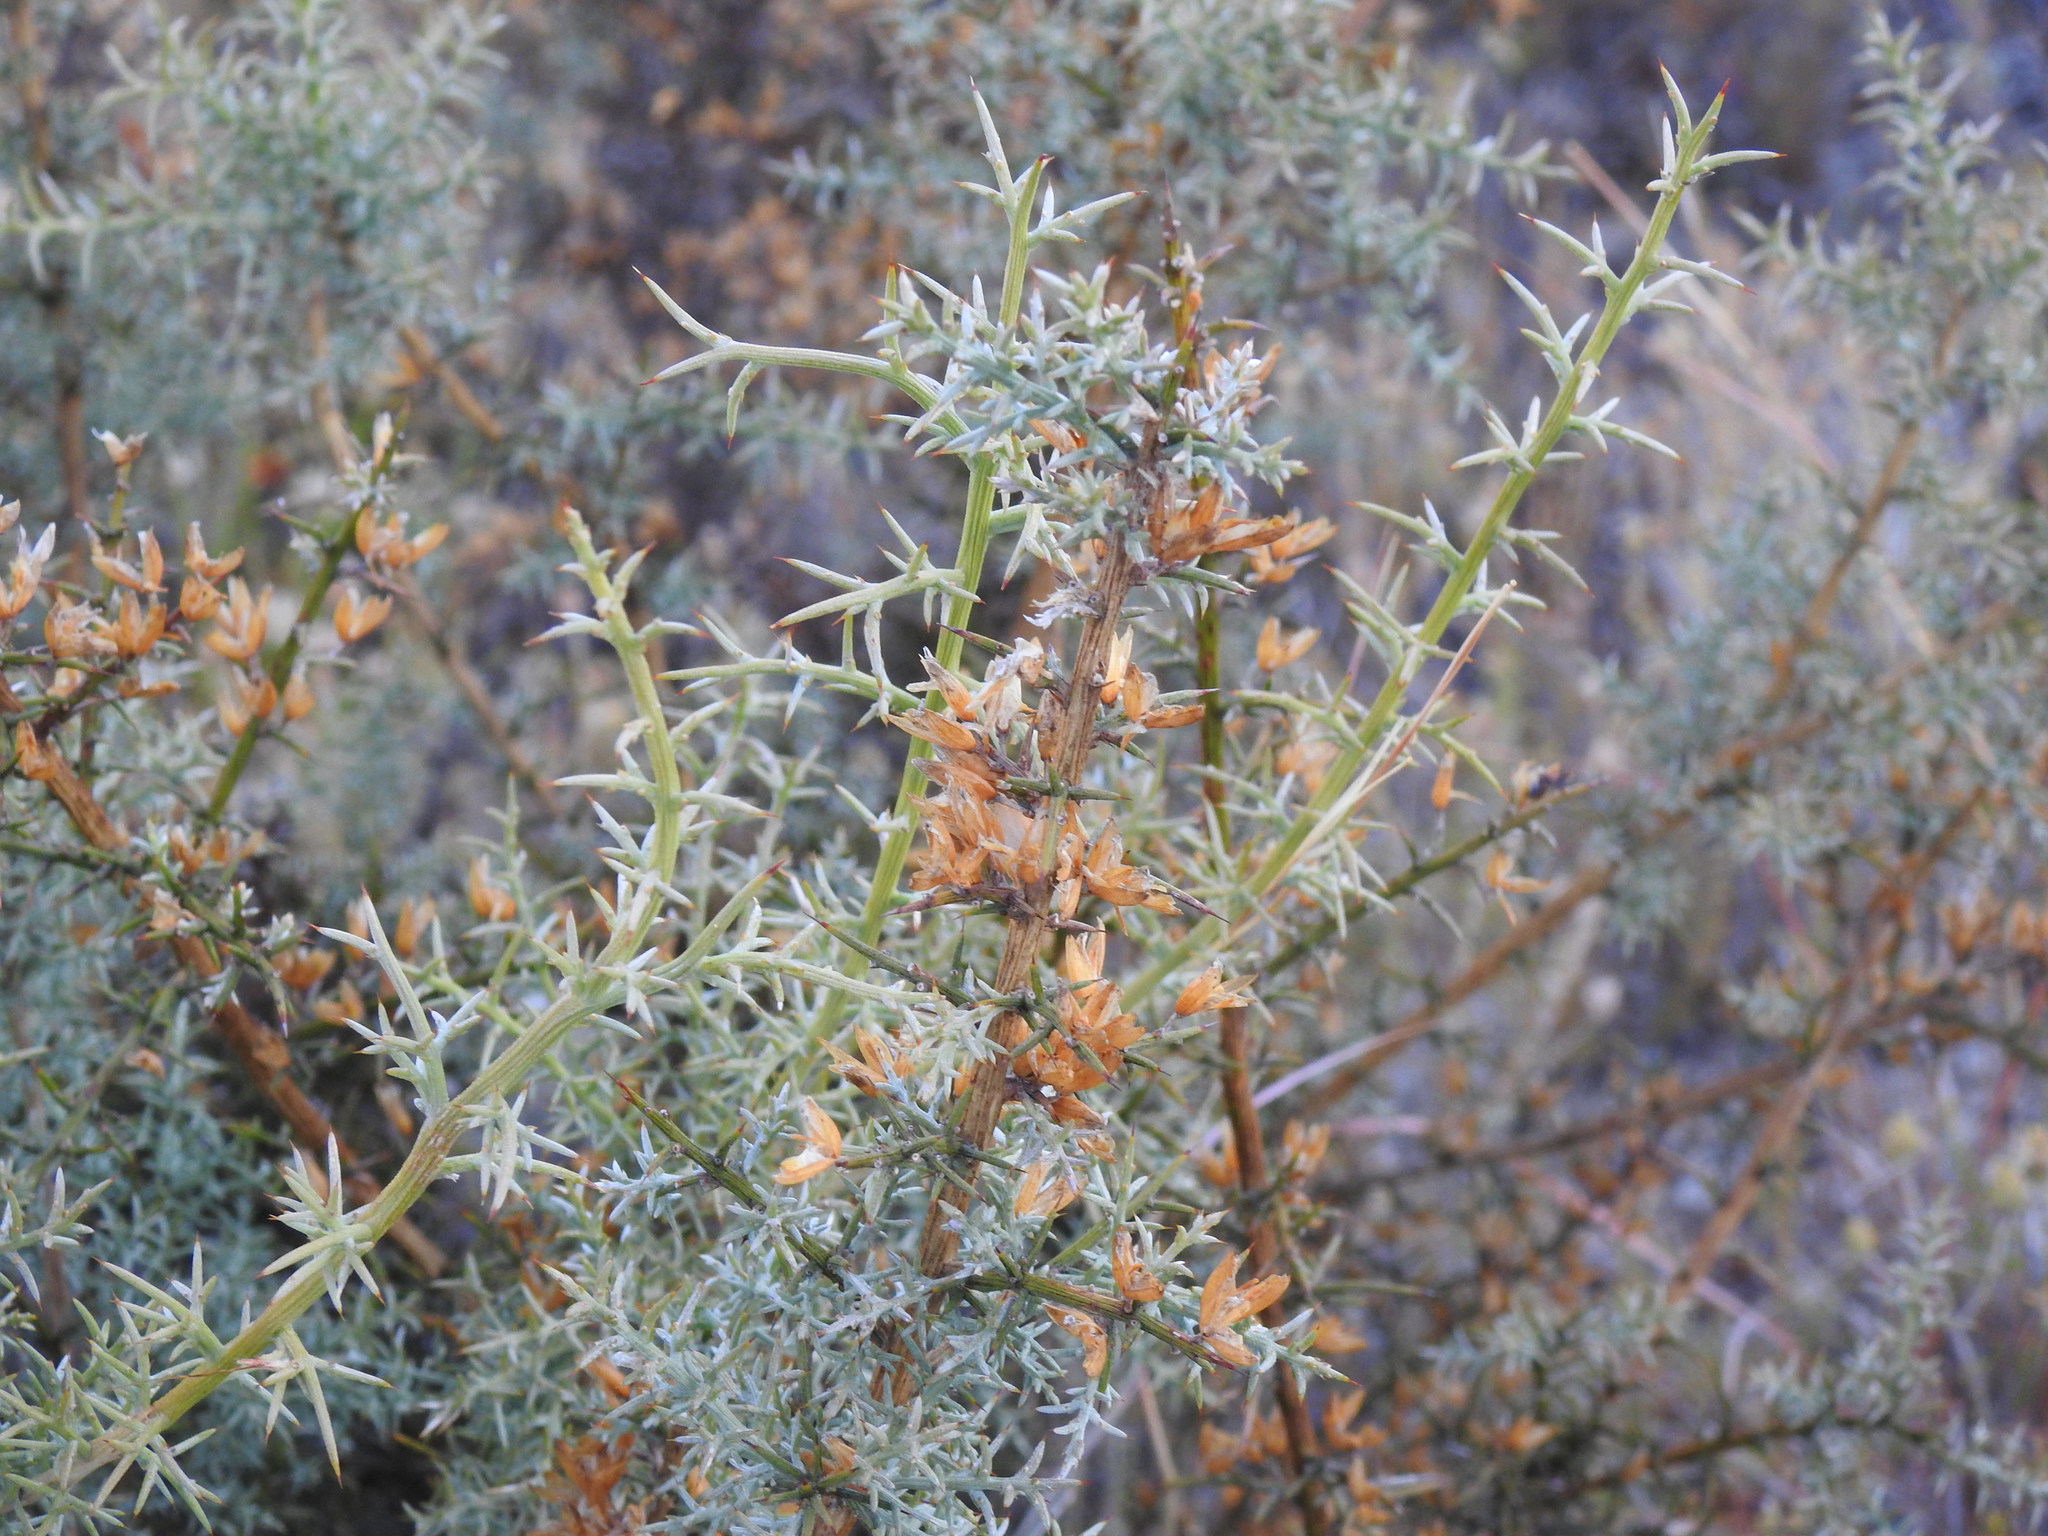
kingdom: Plantae
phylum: Tracheophyta
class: Magnoliopsida
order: Fabales
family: Fabaceae
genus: Ulex
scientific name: Ulex argenteus
